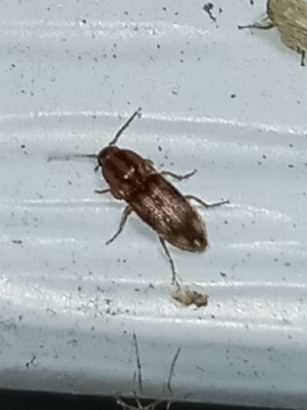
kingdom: Animalia
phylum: Arthropoda
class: Insecta
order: Coleoptera
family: Elateridae
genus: Monocrepidius
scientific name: Monocrepidius bellus
